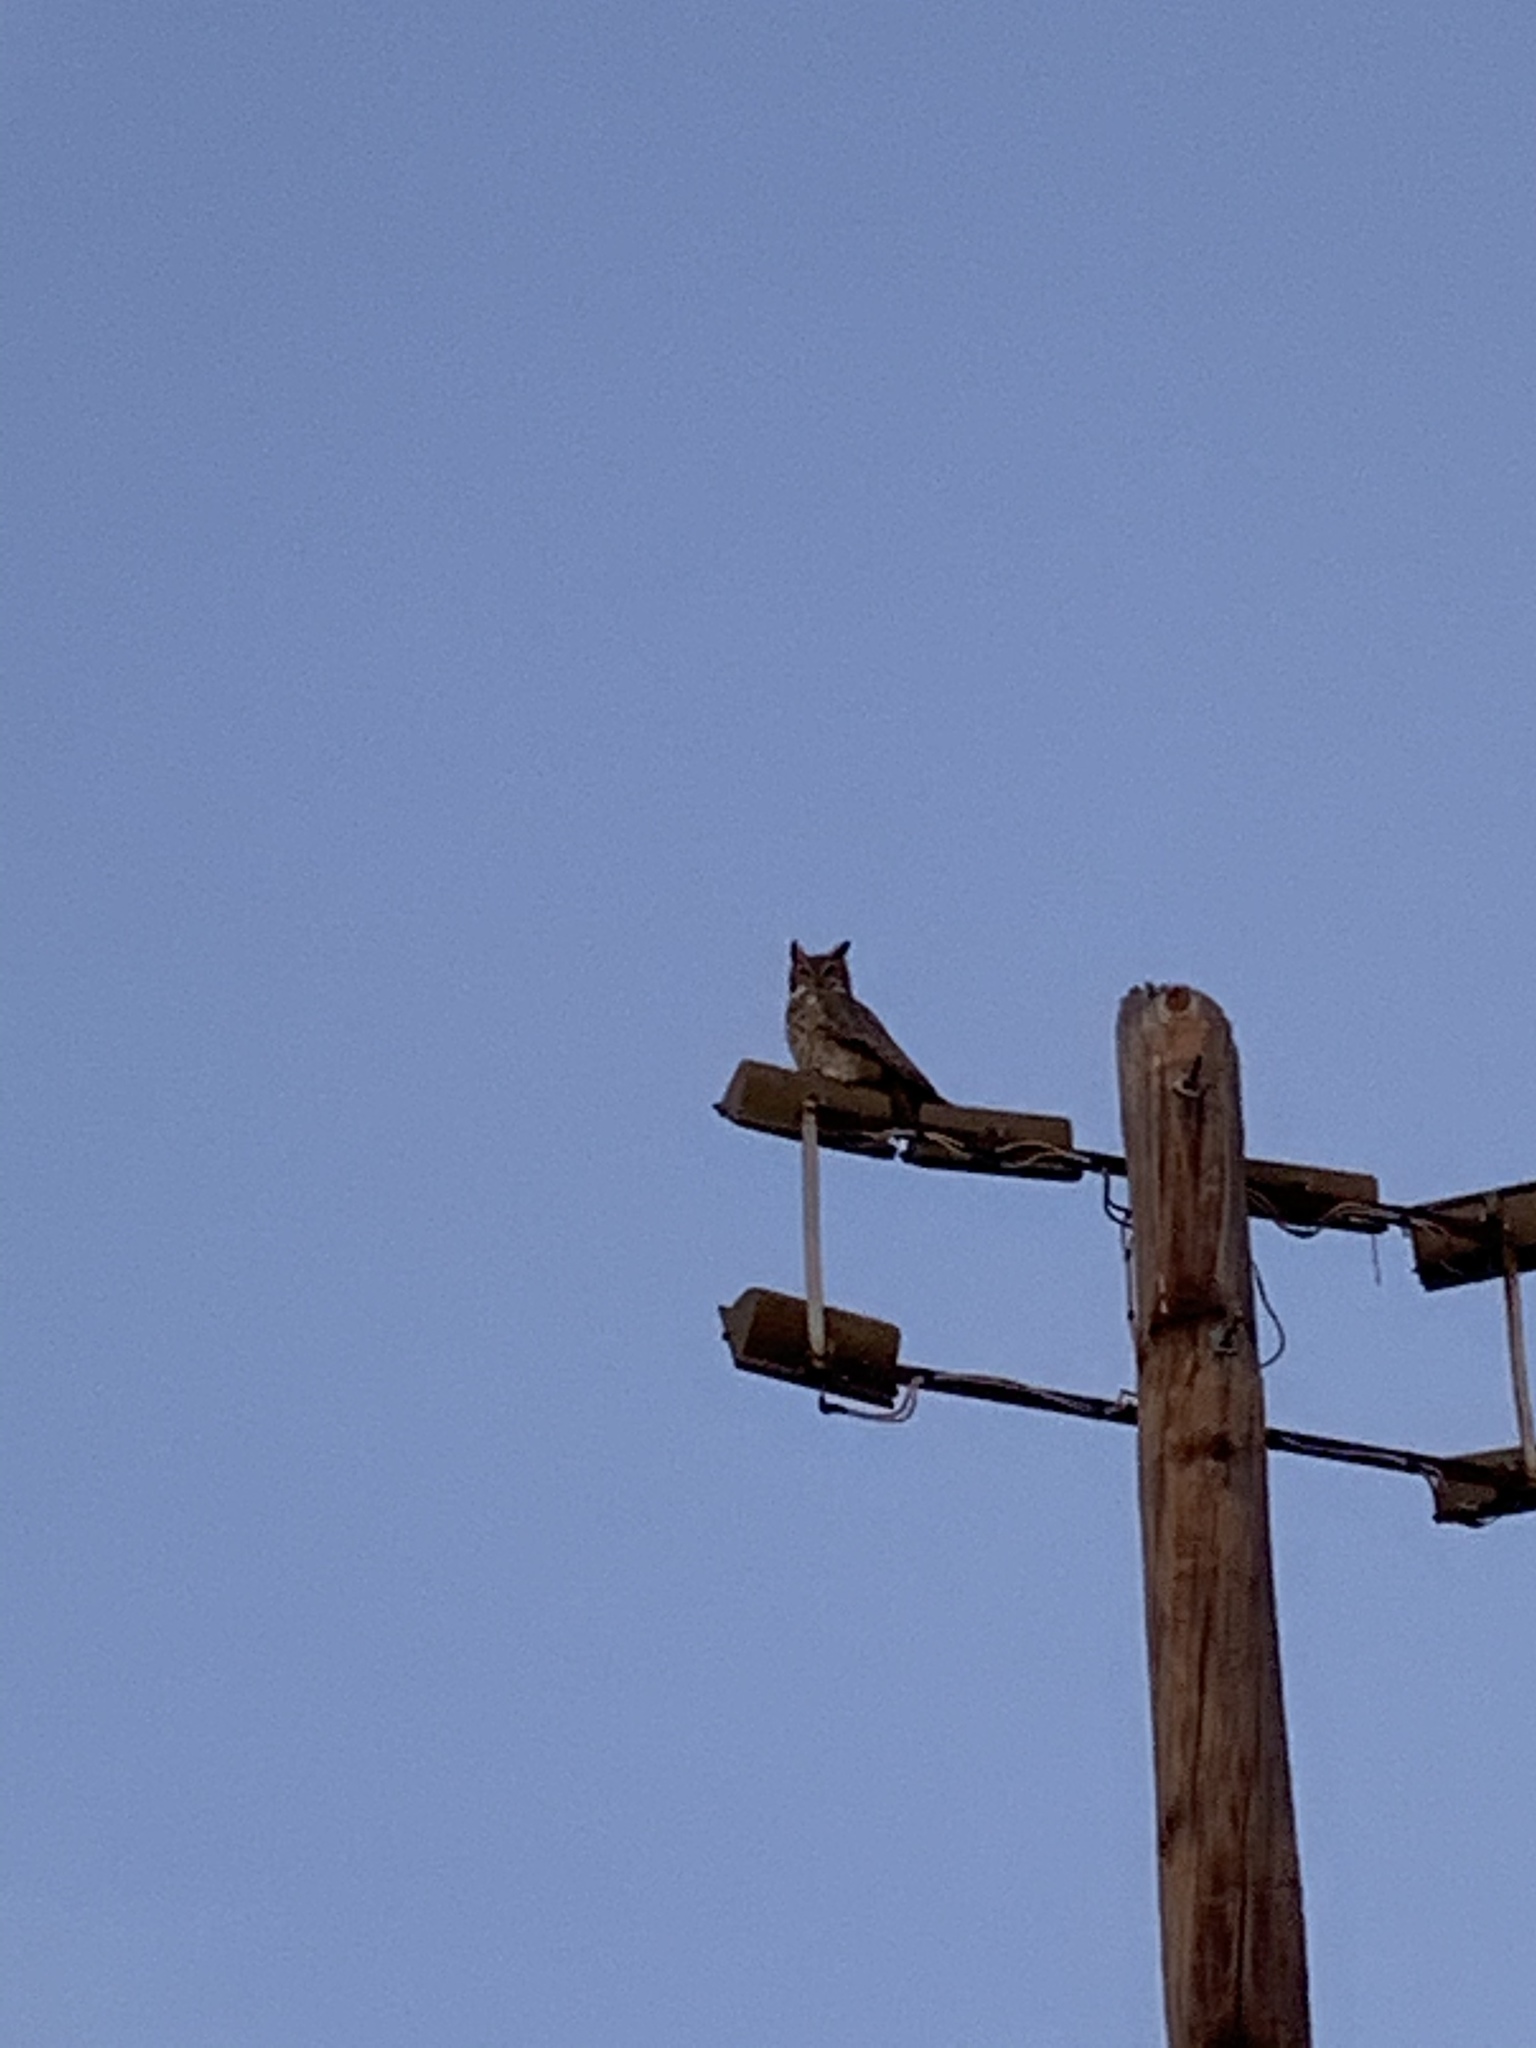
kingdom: Animalia
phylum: Chordata
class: Aves
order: Strigiformes
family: Strigidae
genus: Bubo
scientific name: Bubo virginianus
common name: Great horned owl
